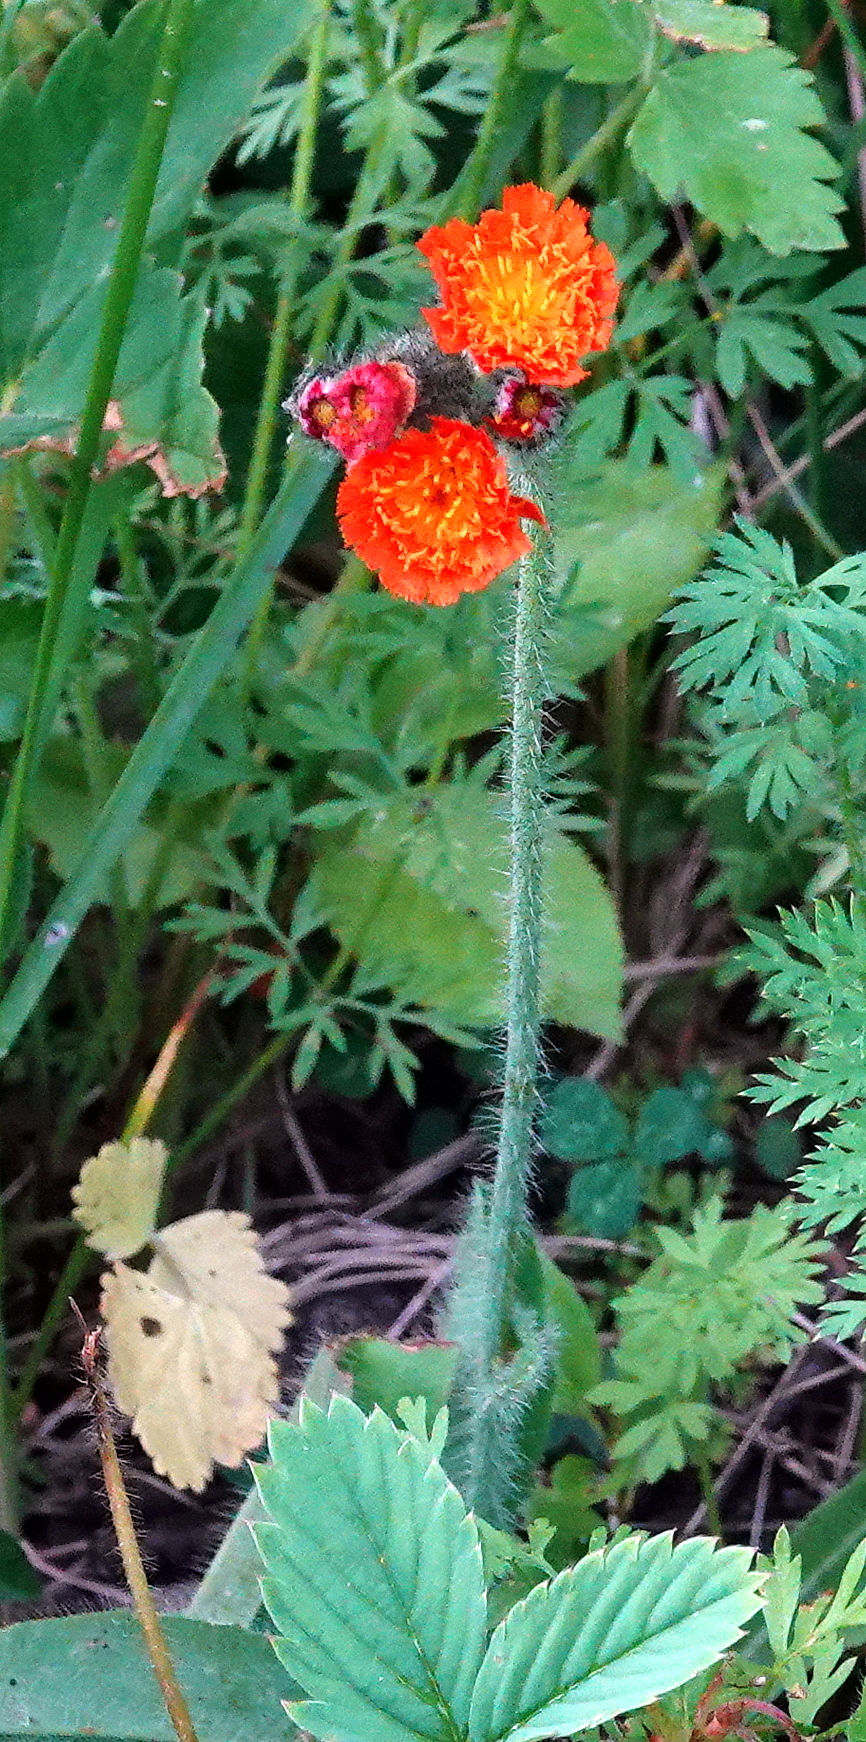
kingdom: Plantae
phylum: Tracheophyta
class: Magnoliopsida
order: Asterales
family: Asteraceae
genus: Pilosella
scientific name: Pilosella aurantiaca
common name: Fox-and-cubs
